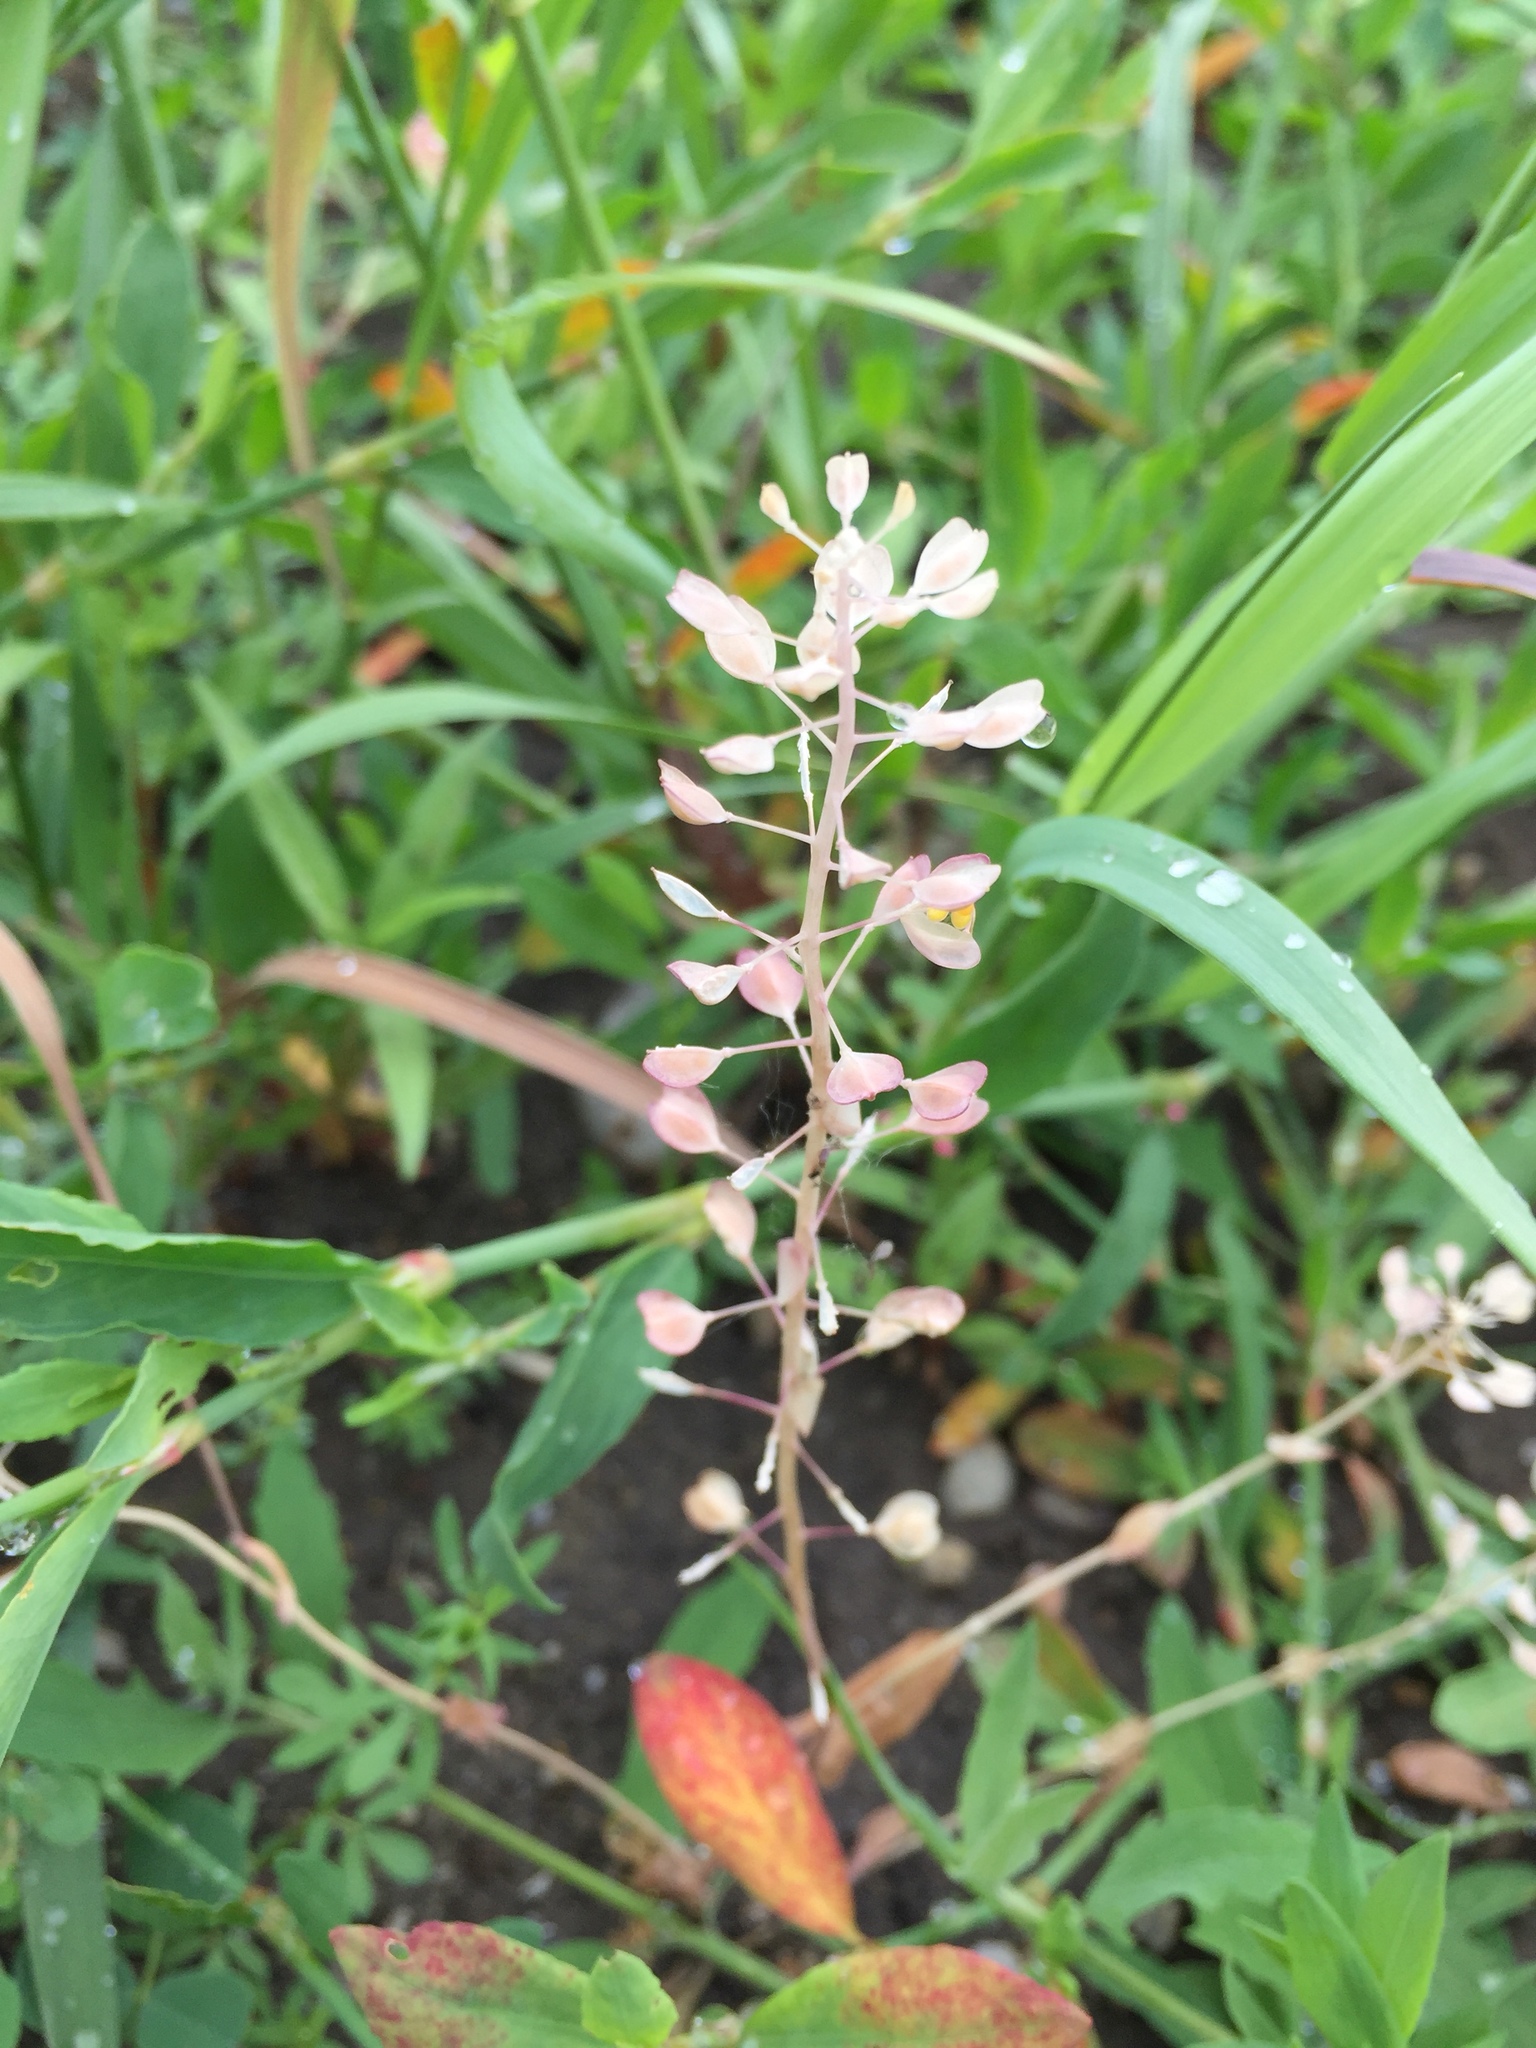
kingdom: Plantae
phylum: Tracheophyta
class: Magnoliopsida
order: Brassicales
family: Brassicaceae
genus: Capsella
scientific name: Capsella bursa-pastoris
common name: Shepherd's purse
